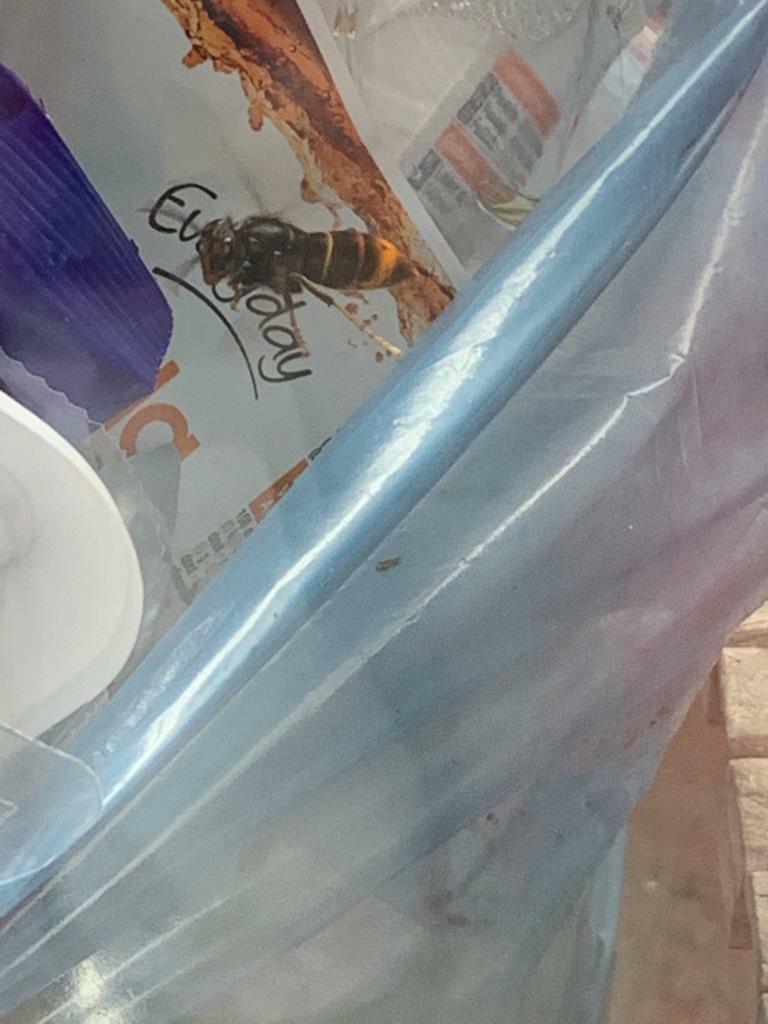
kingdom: Animalia
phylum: Arthropoda
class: Insecta
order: Hymenoptera
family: Vespidae
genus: Vespa
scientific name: Vespa velutina
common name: Asian hornet
